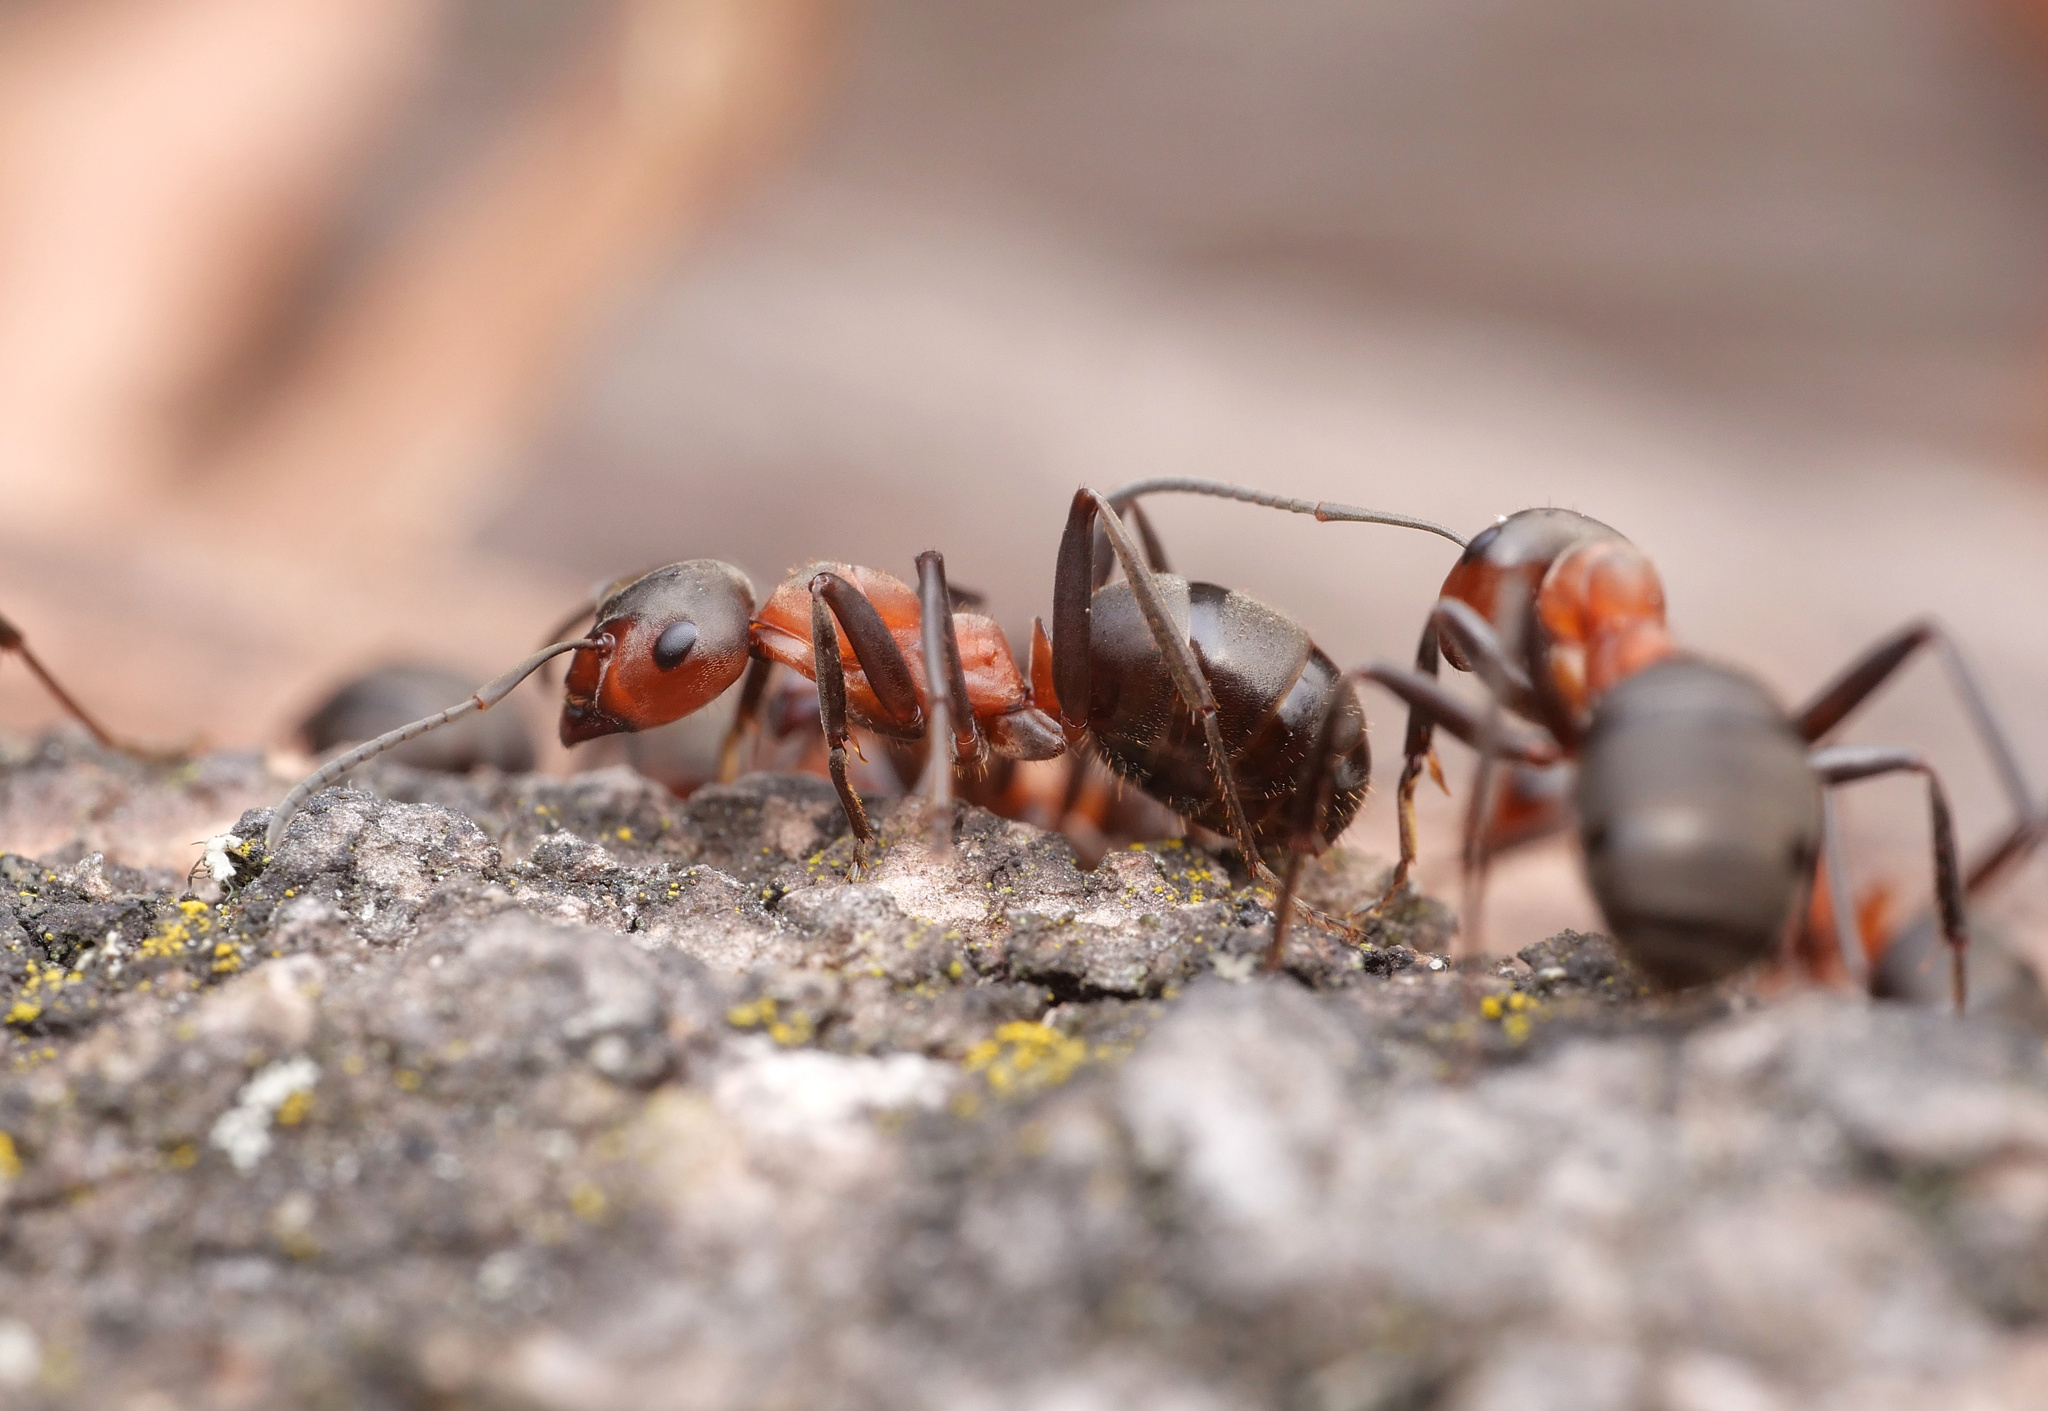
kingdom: Animalia
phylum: Arthropoda
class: Insecta
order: Hymenoptera
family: Formicidae
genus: Formica
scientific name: Formica rufa
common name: Red wood ant
